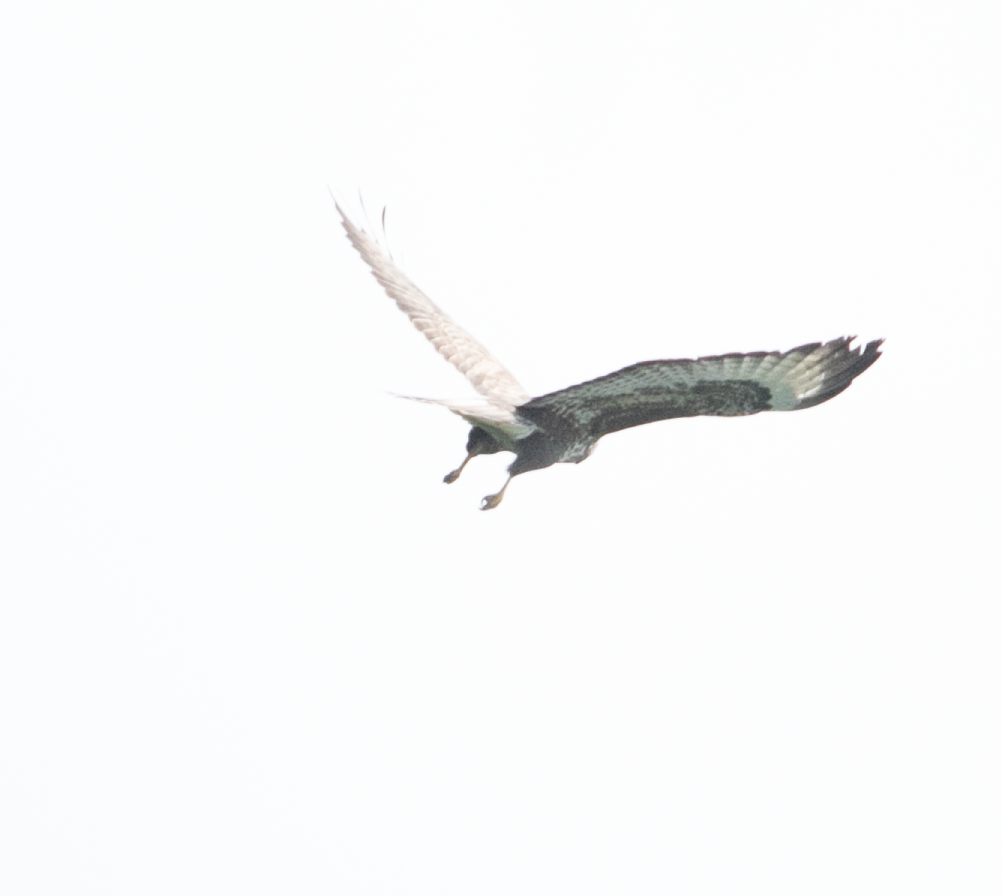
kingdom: Animalia
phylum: Chordata
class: Aves
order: Accipitriformes
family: Accipitridae
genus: Buteo
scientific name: Buteo buteo
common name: Common buzzard
